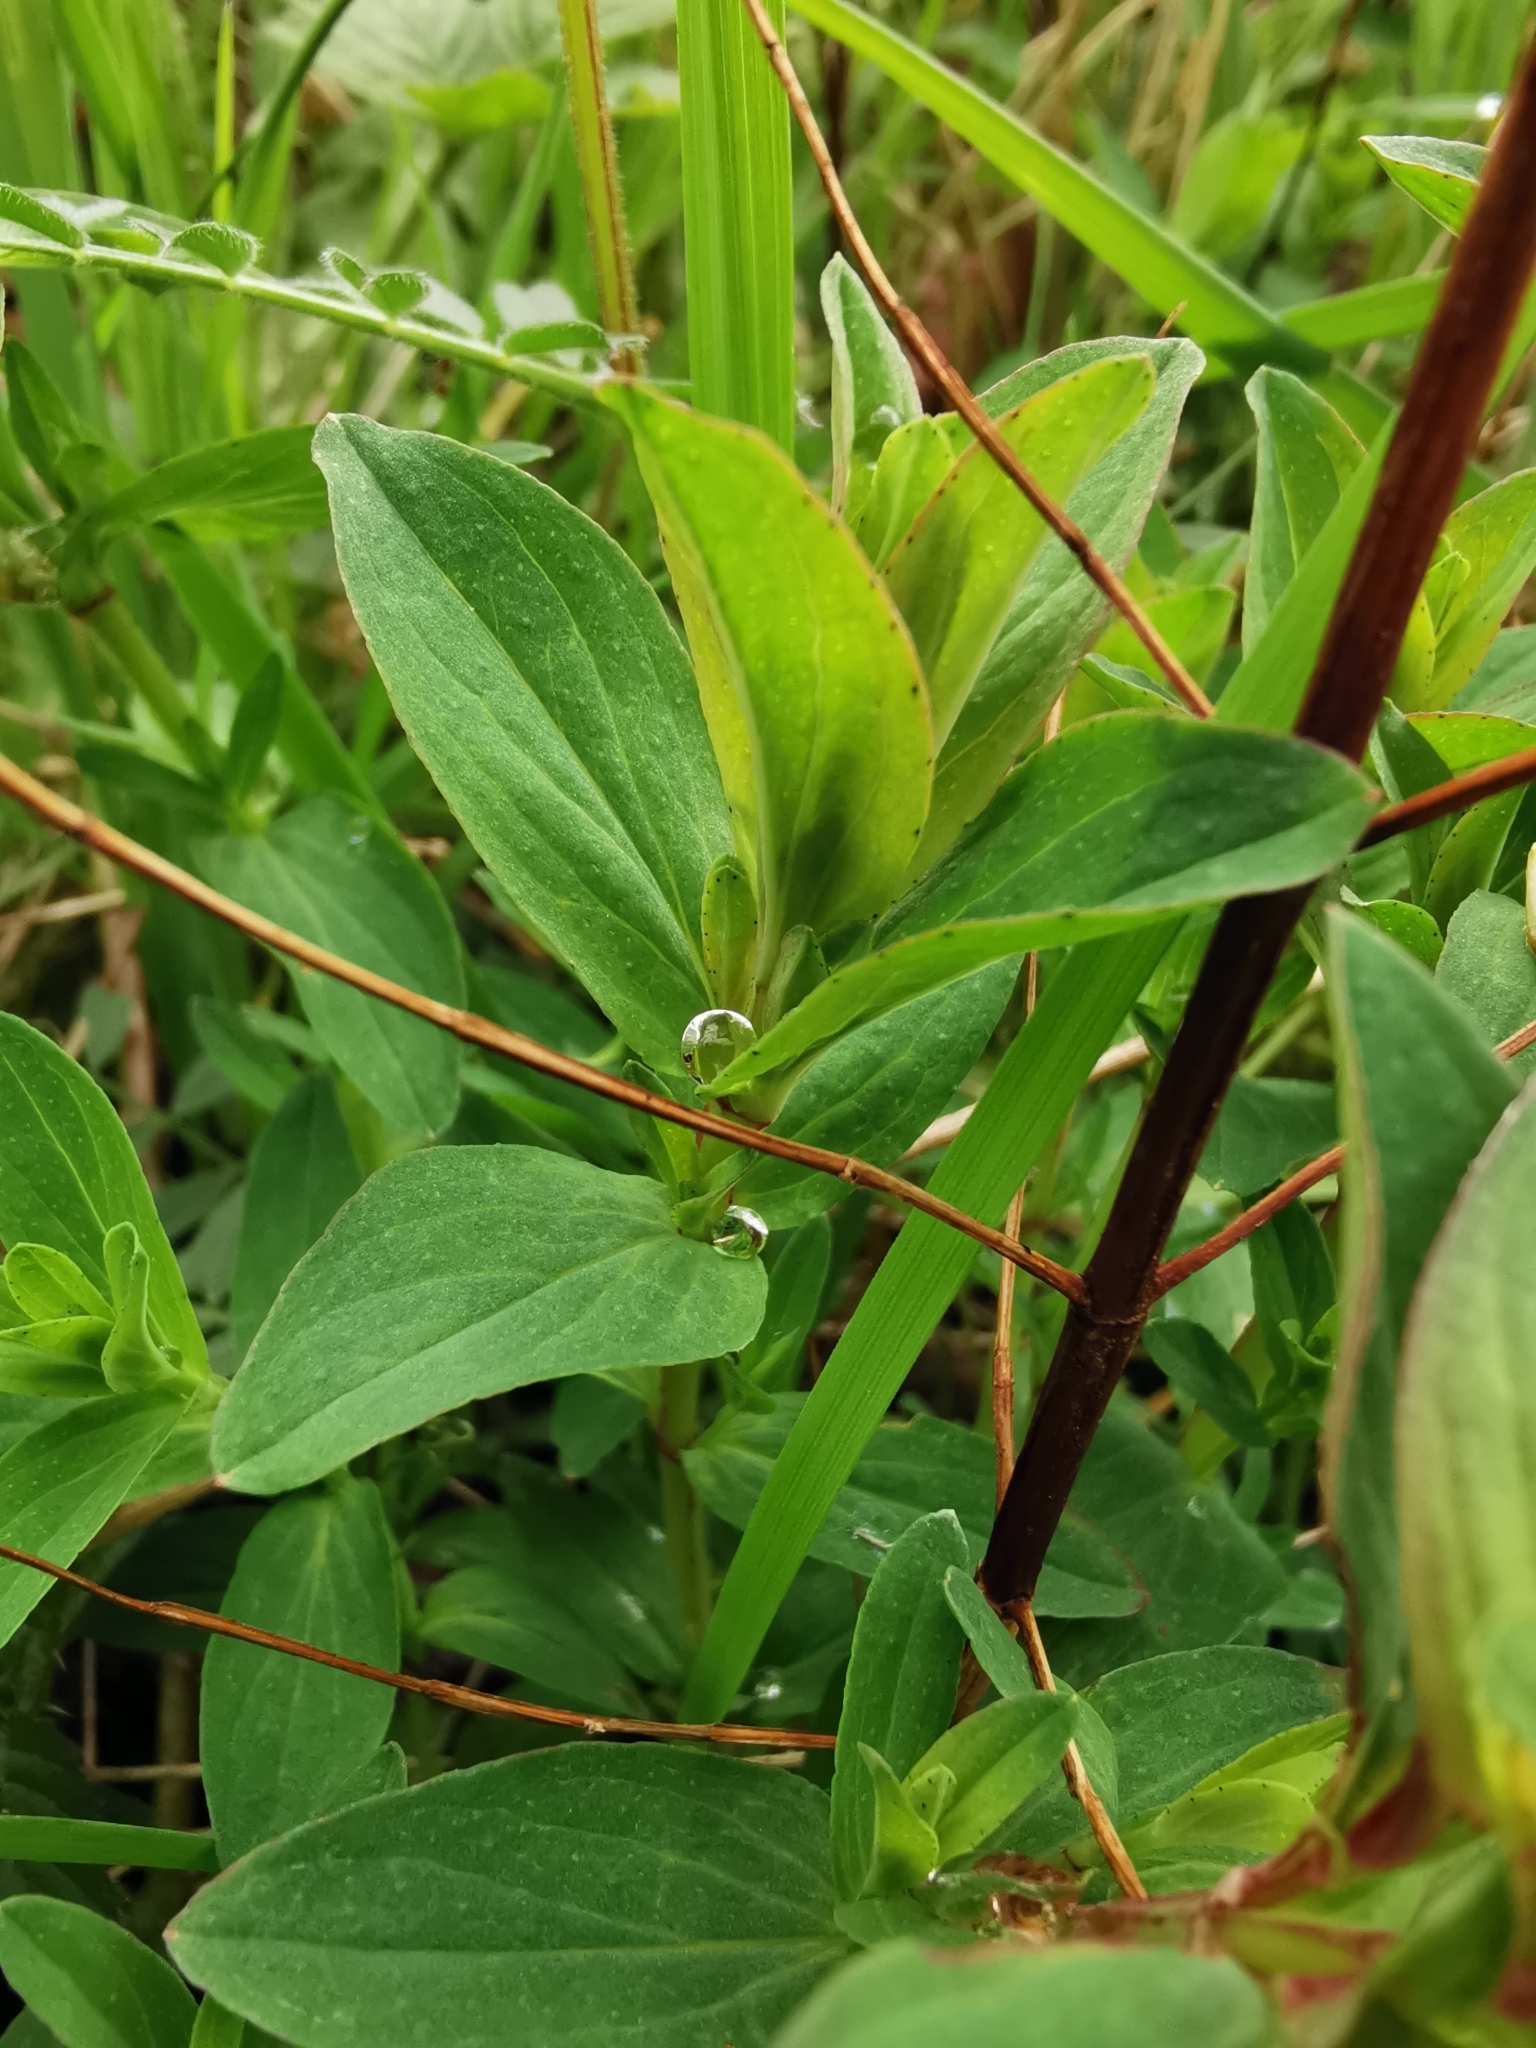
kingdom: Plantae
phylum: Tracheophyta
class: Magnoliopsida
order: Malpighiales
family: Hypericaceae
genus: Hypericum
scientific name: Hypericum perforatum
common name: Common st. johnswort
